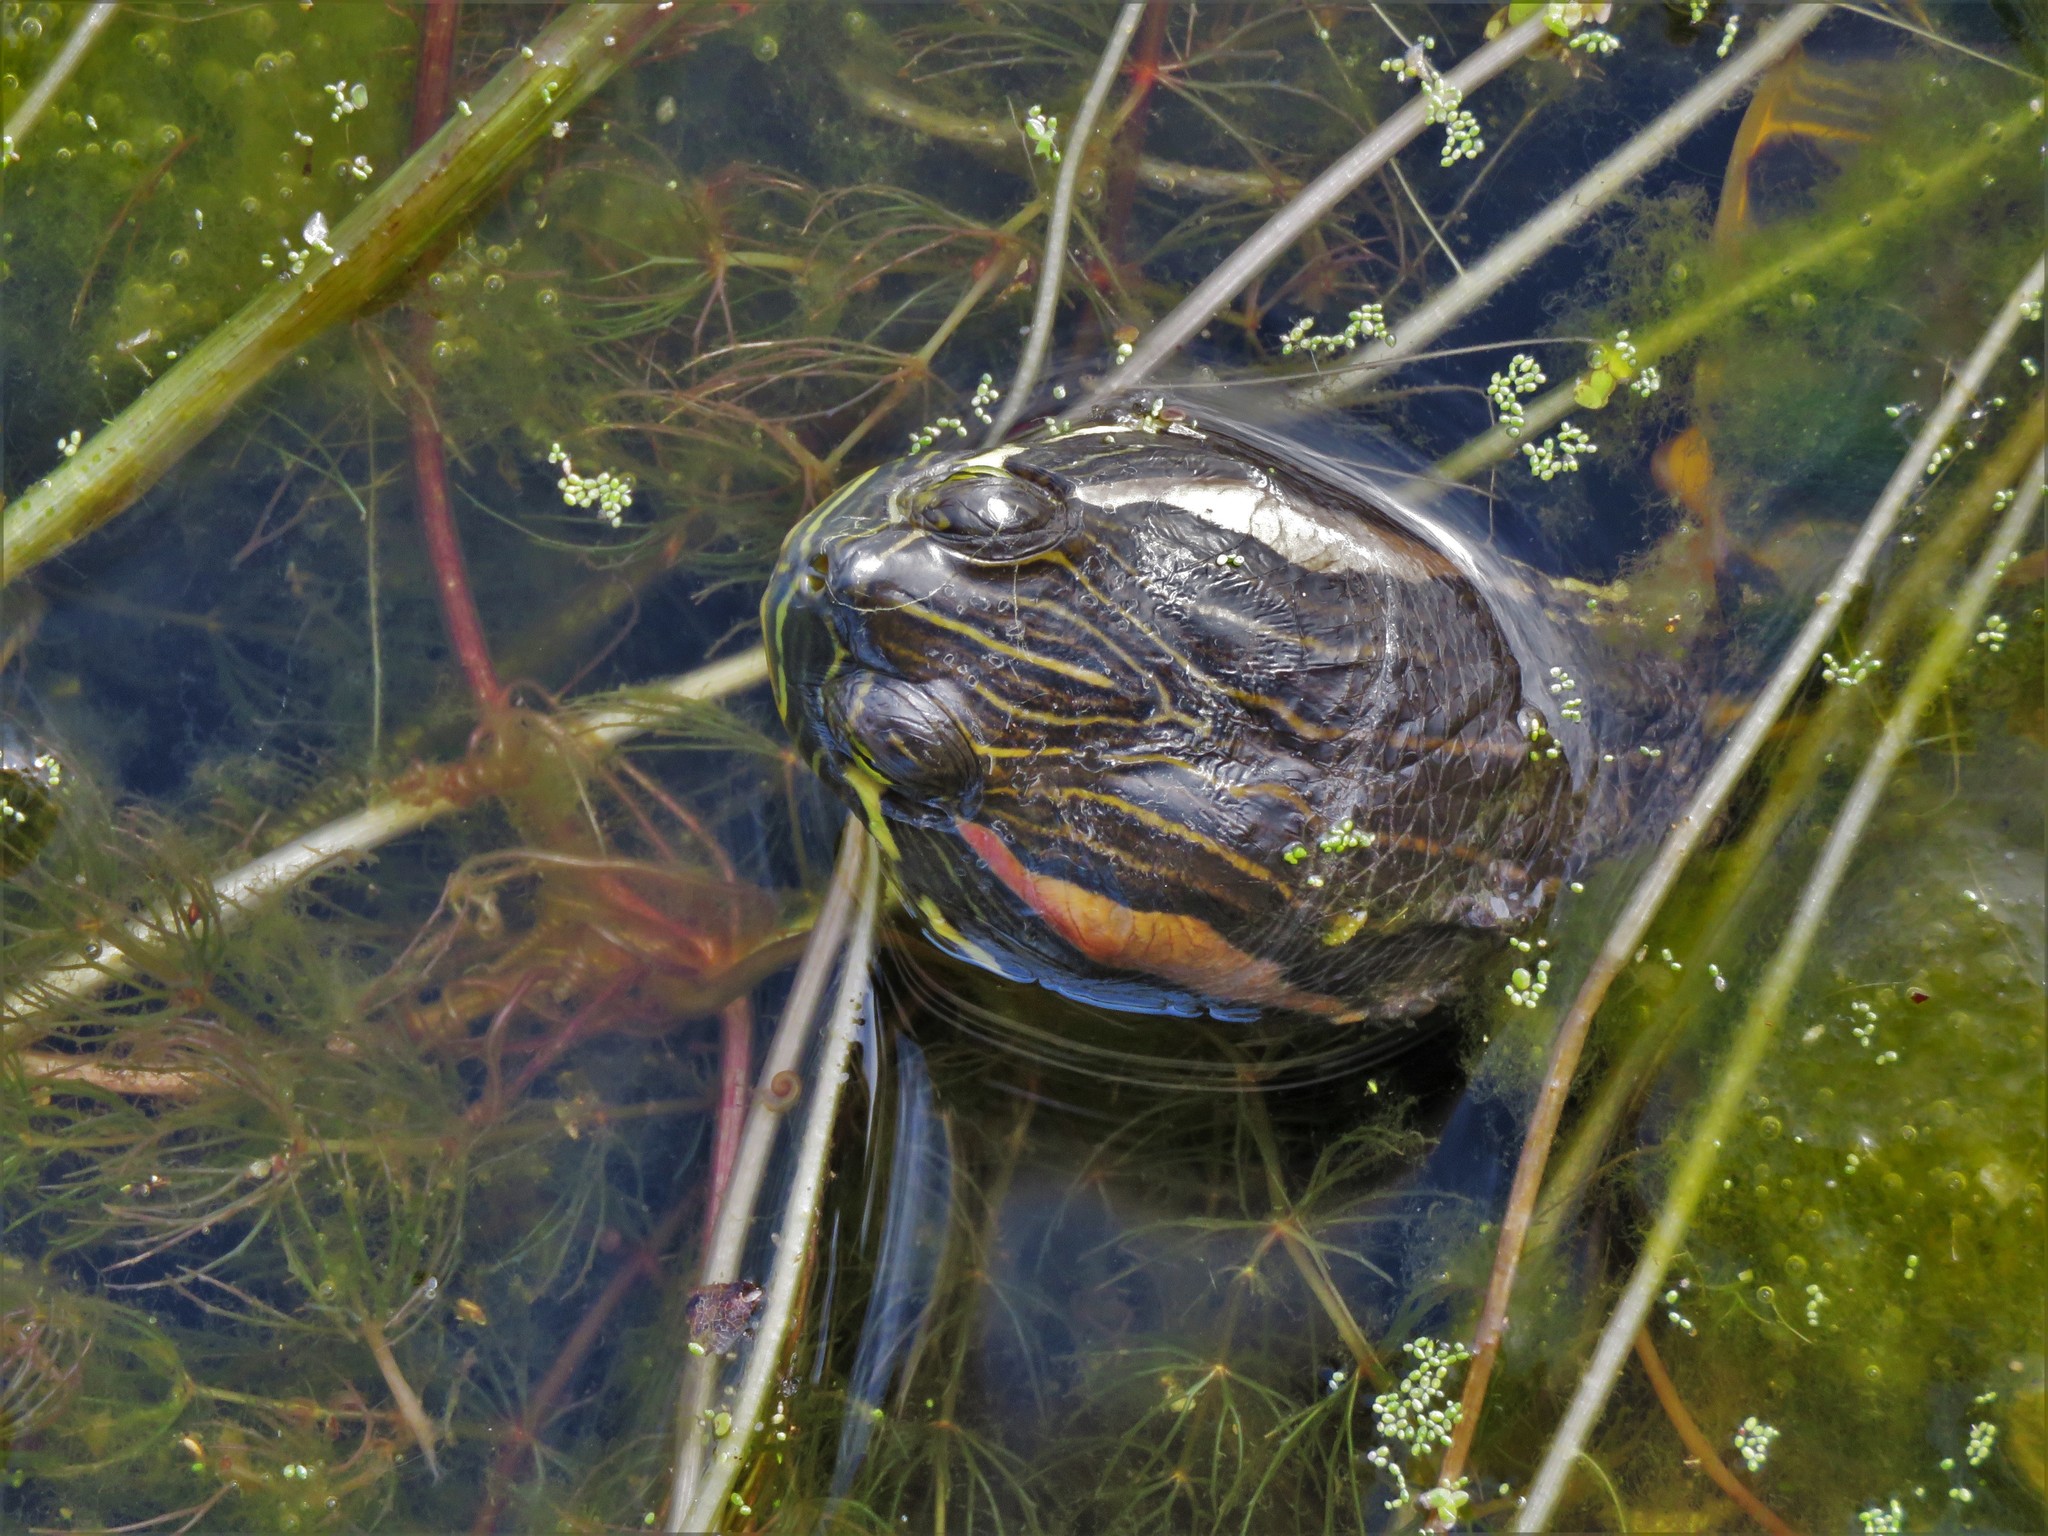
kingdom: Animalia
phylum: Chordata
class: Testudines
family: Emydidae
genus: Trachemys
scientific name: Trachemys scripta
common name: Slider
